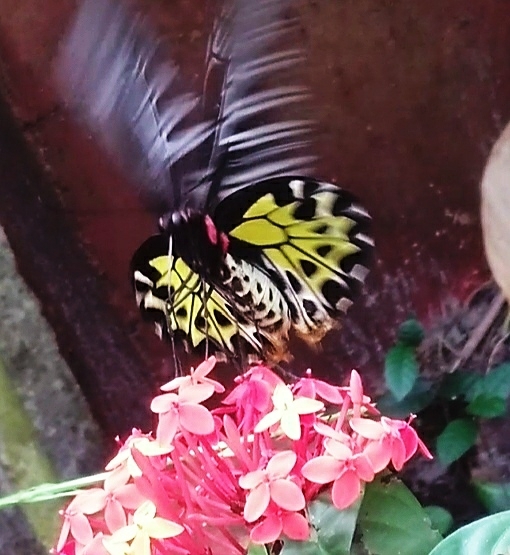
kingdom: Animalia
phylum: Arthropoda
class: Insecta
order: Lepidoptera
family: Papilionidae
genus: Troides
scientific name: Troides minos
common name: Malabar birdwing
